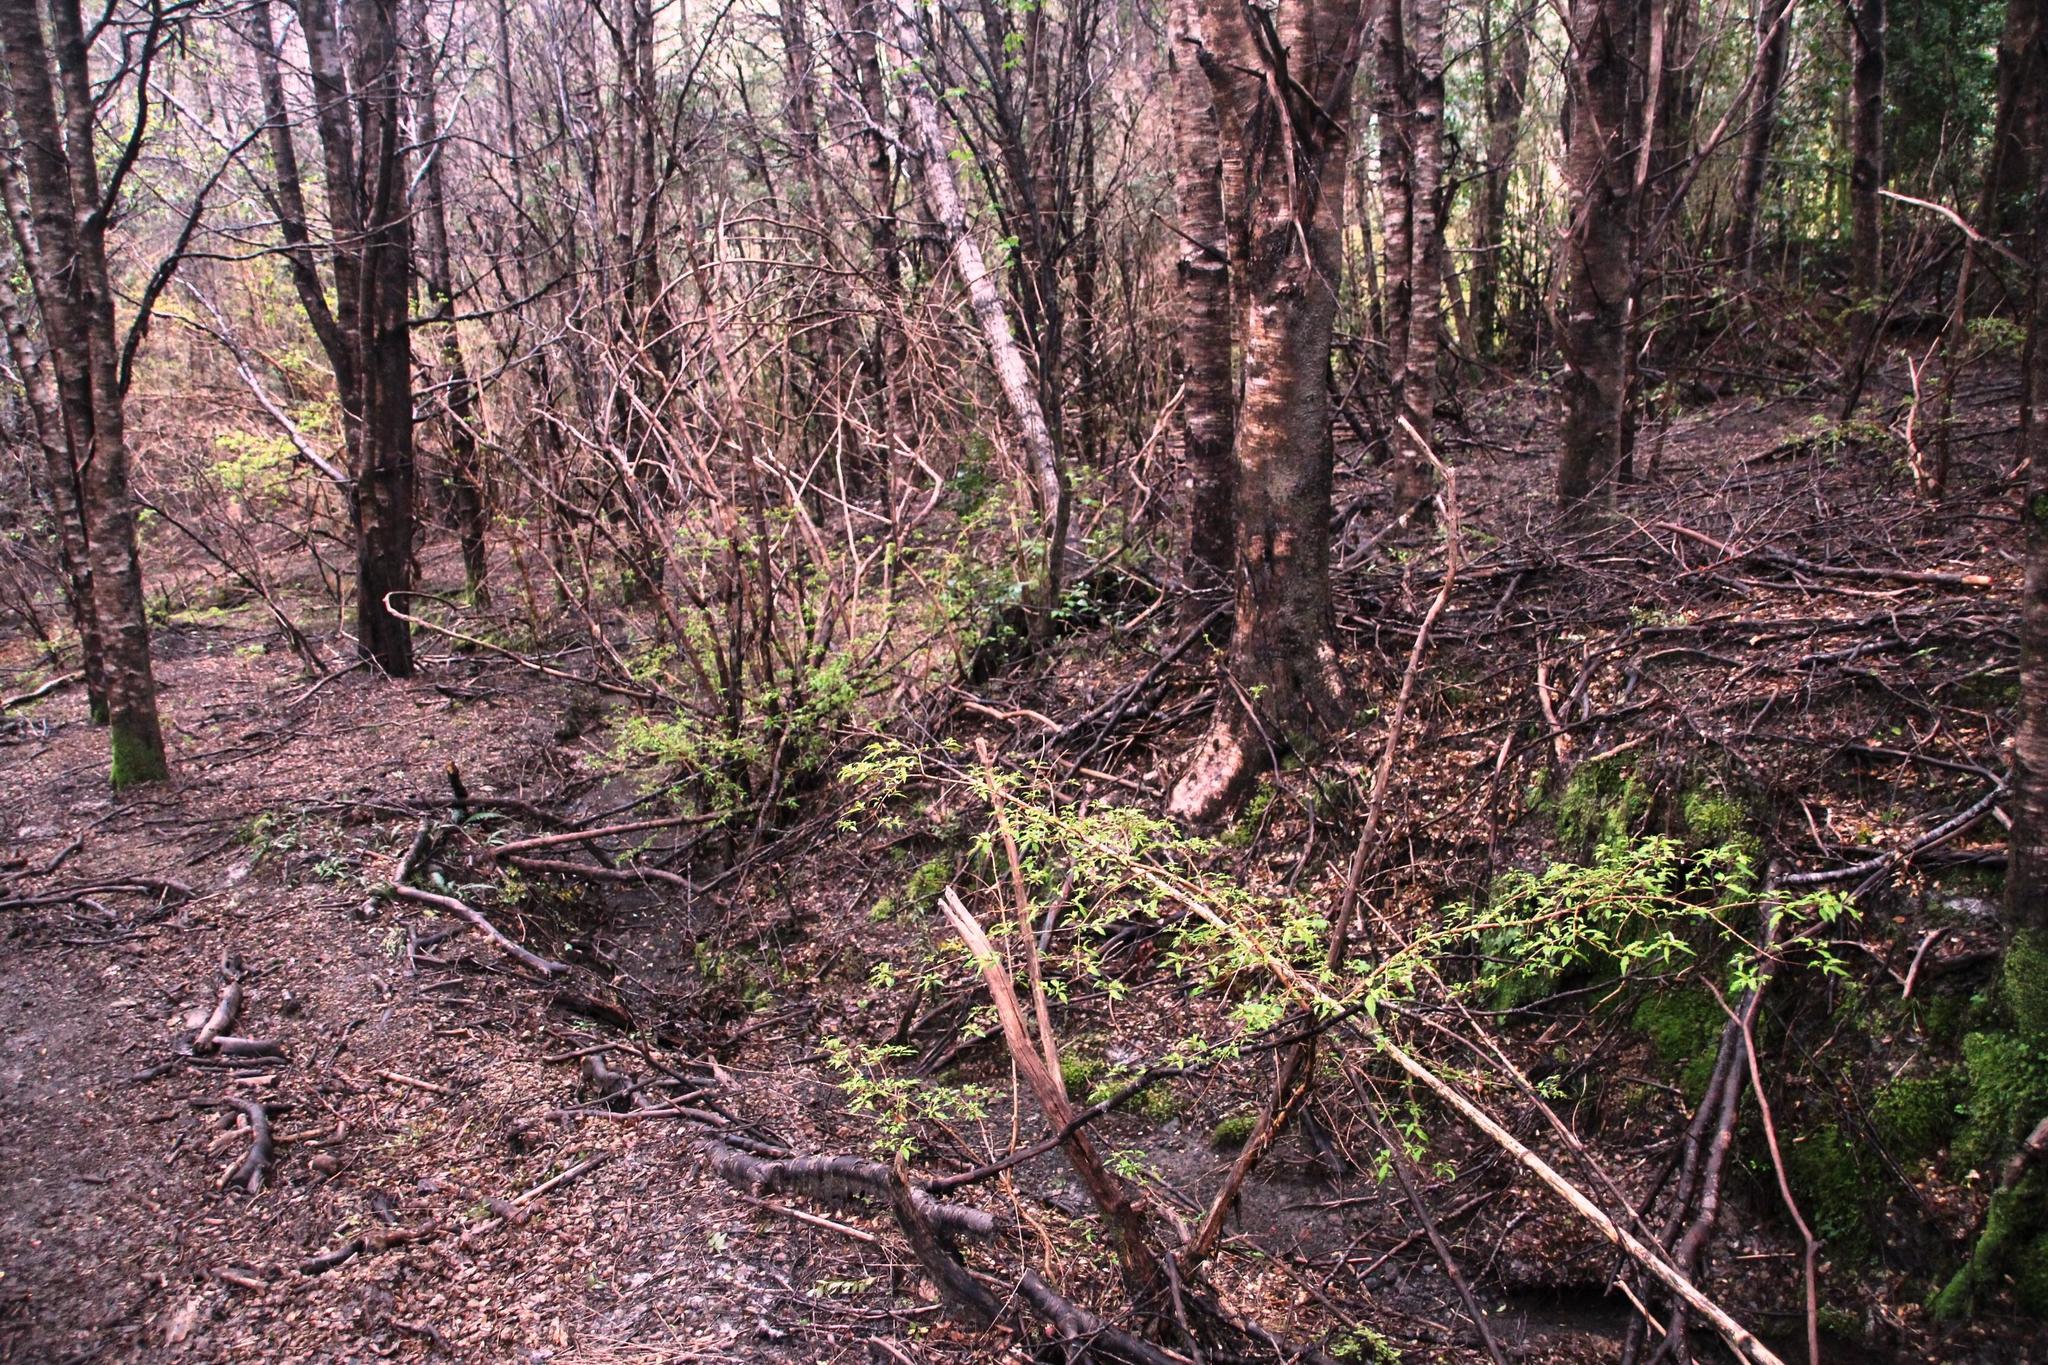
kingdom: Plantae
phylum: Tracheophyta
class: Magnoliopsida
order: Myrtales
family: Onagraceae
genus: Fuchsia
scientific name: Fuchsia magellanica
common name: Hardy fuchsia
